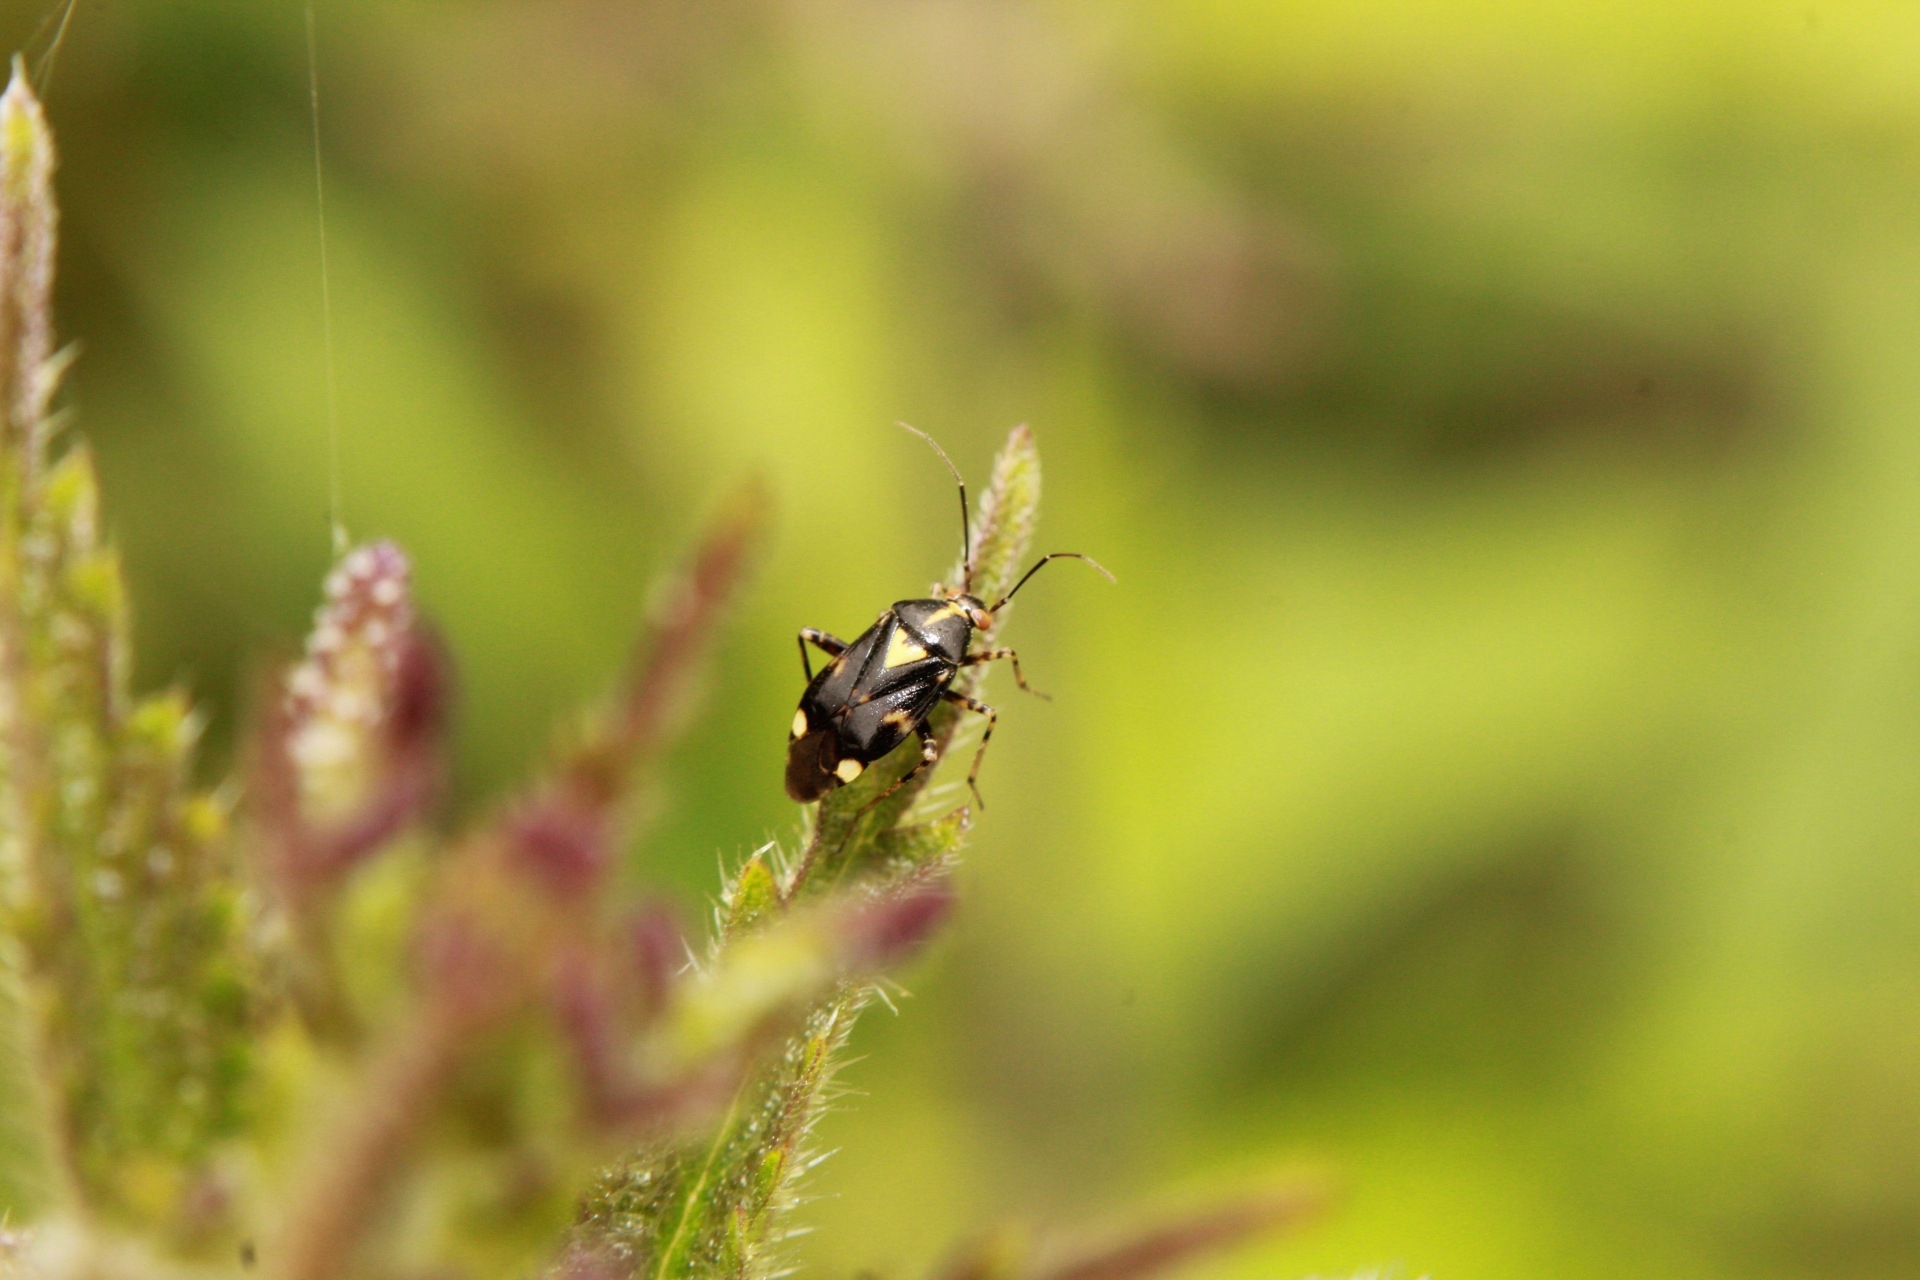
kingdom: Animalia
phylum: Arthropoda
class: Insecta
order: Hemiptera
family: Miridae
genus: Liocoris
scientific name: Liocoris tripustulatus
